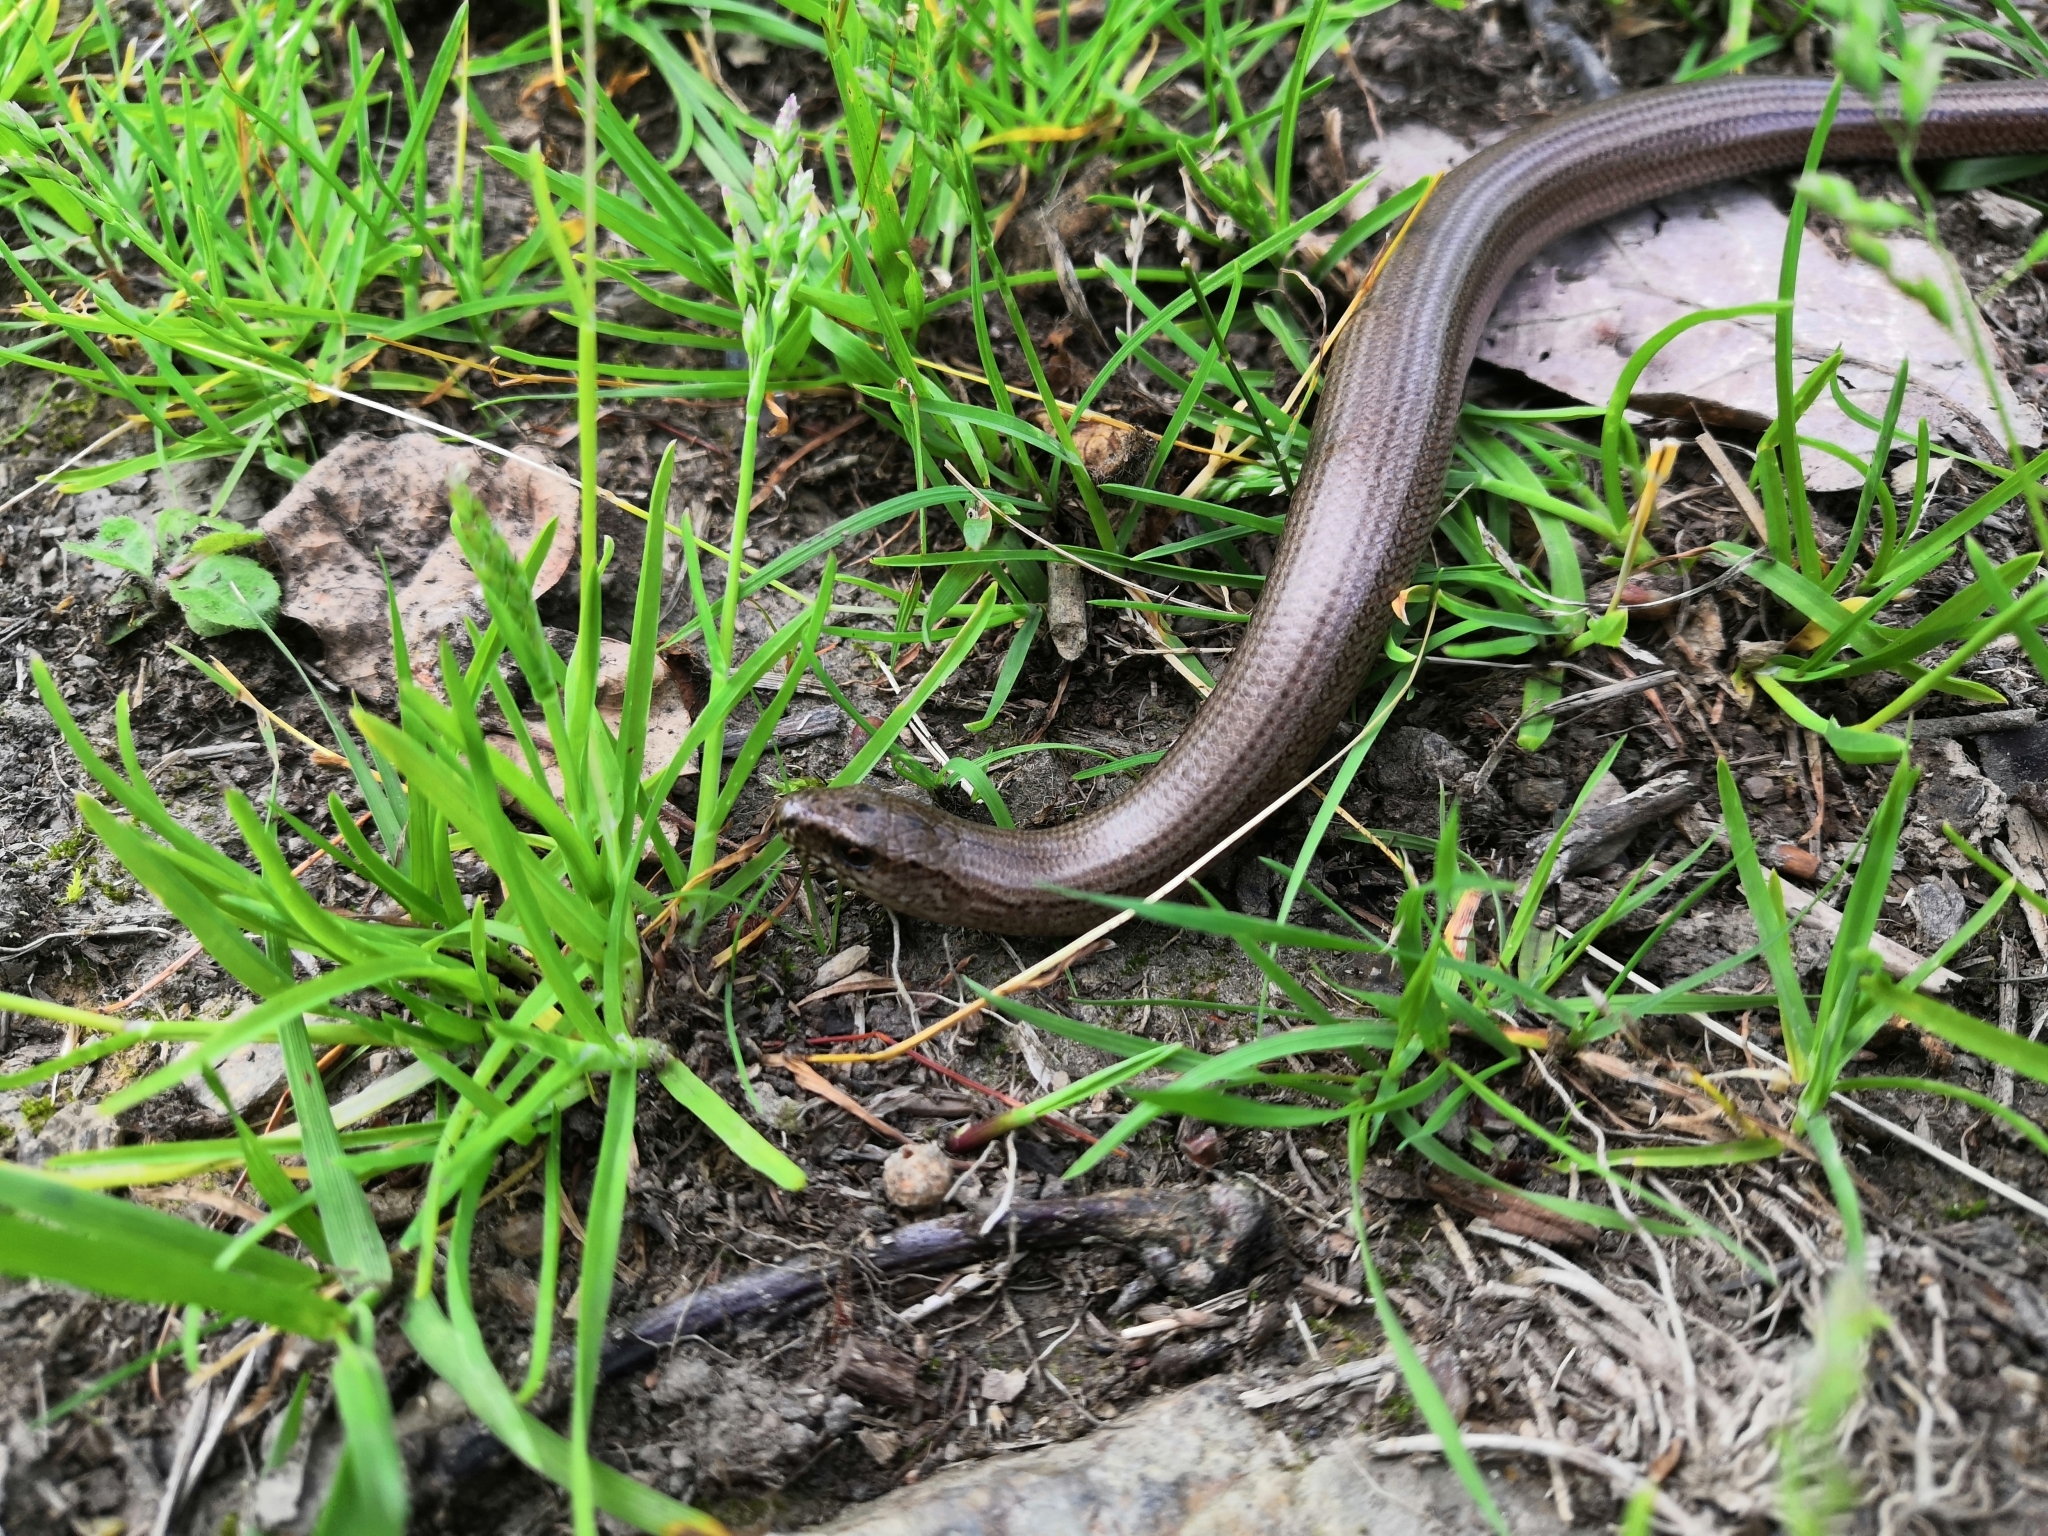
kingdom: Animalia
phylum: Chordata
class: Squamata
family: Anguidae
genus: Anguis
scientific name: Anguis fragilis
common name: Slow worm
